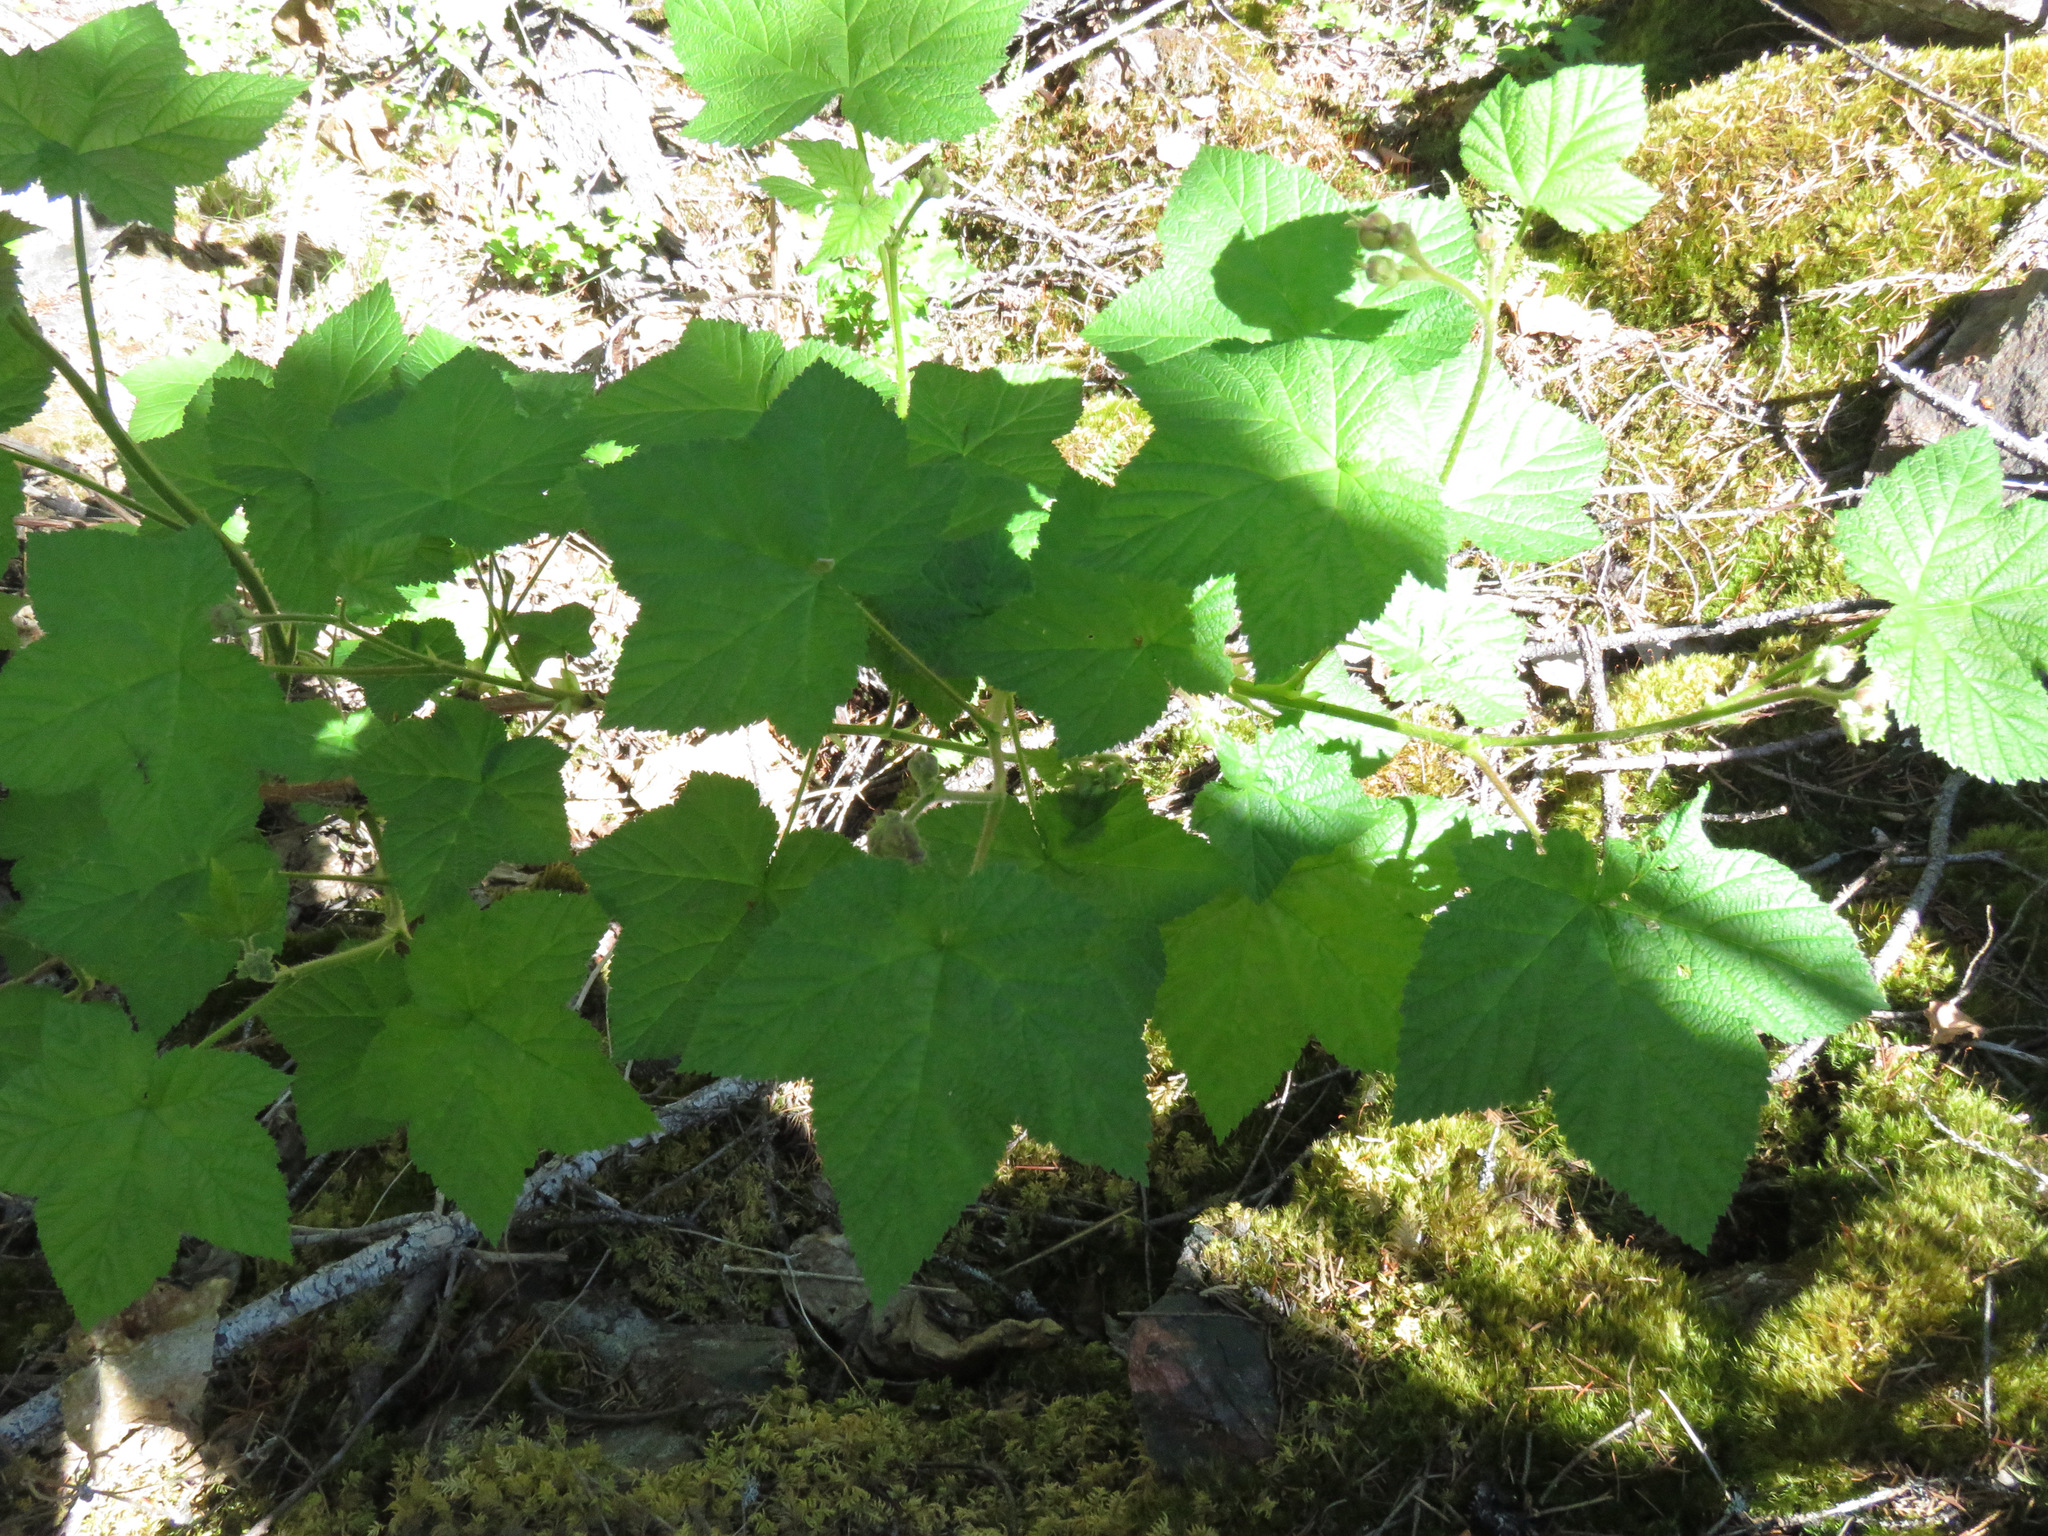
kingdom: Plantae
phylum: Tracheophyta
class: Magnoliopsida
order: Rosales
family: Rosaceae
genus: Rubus
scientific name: Rubus parviflorus
